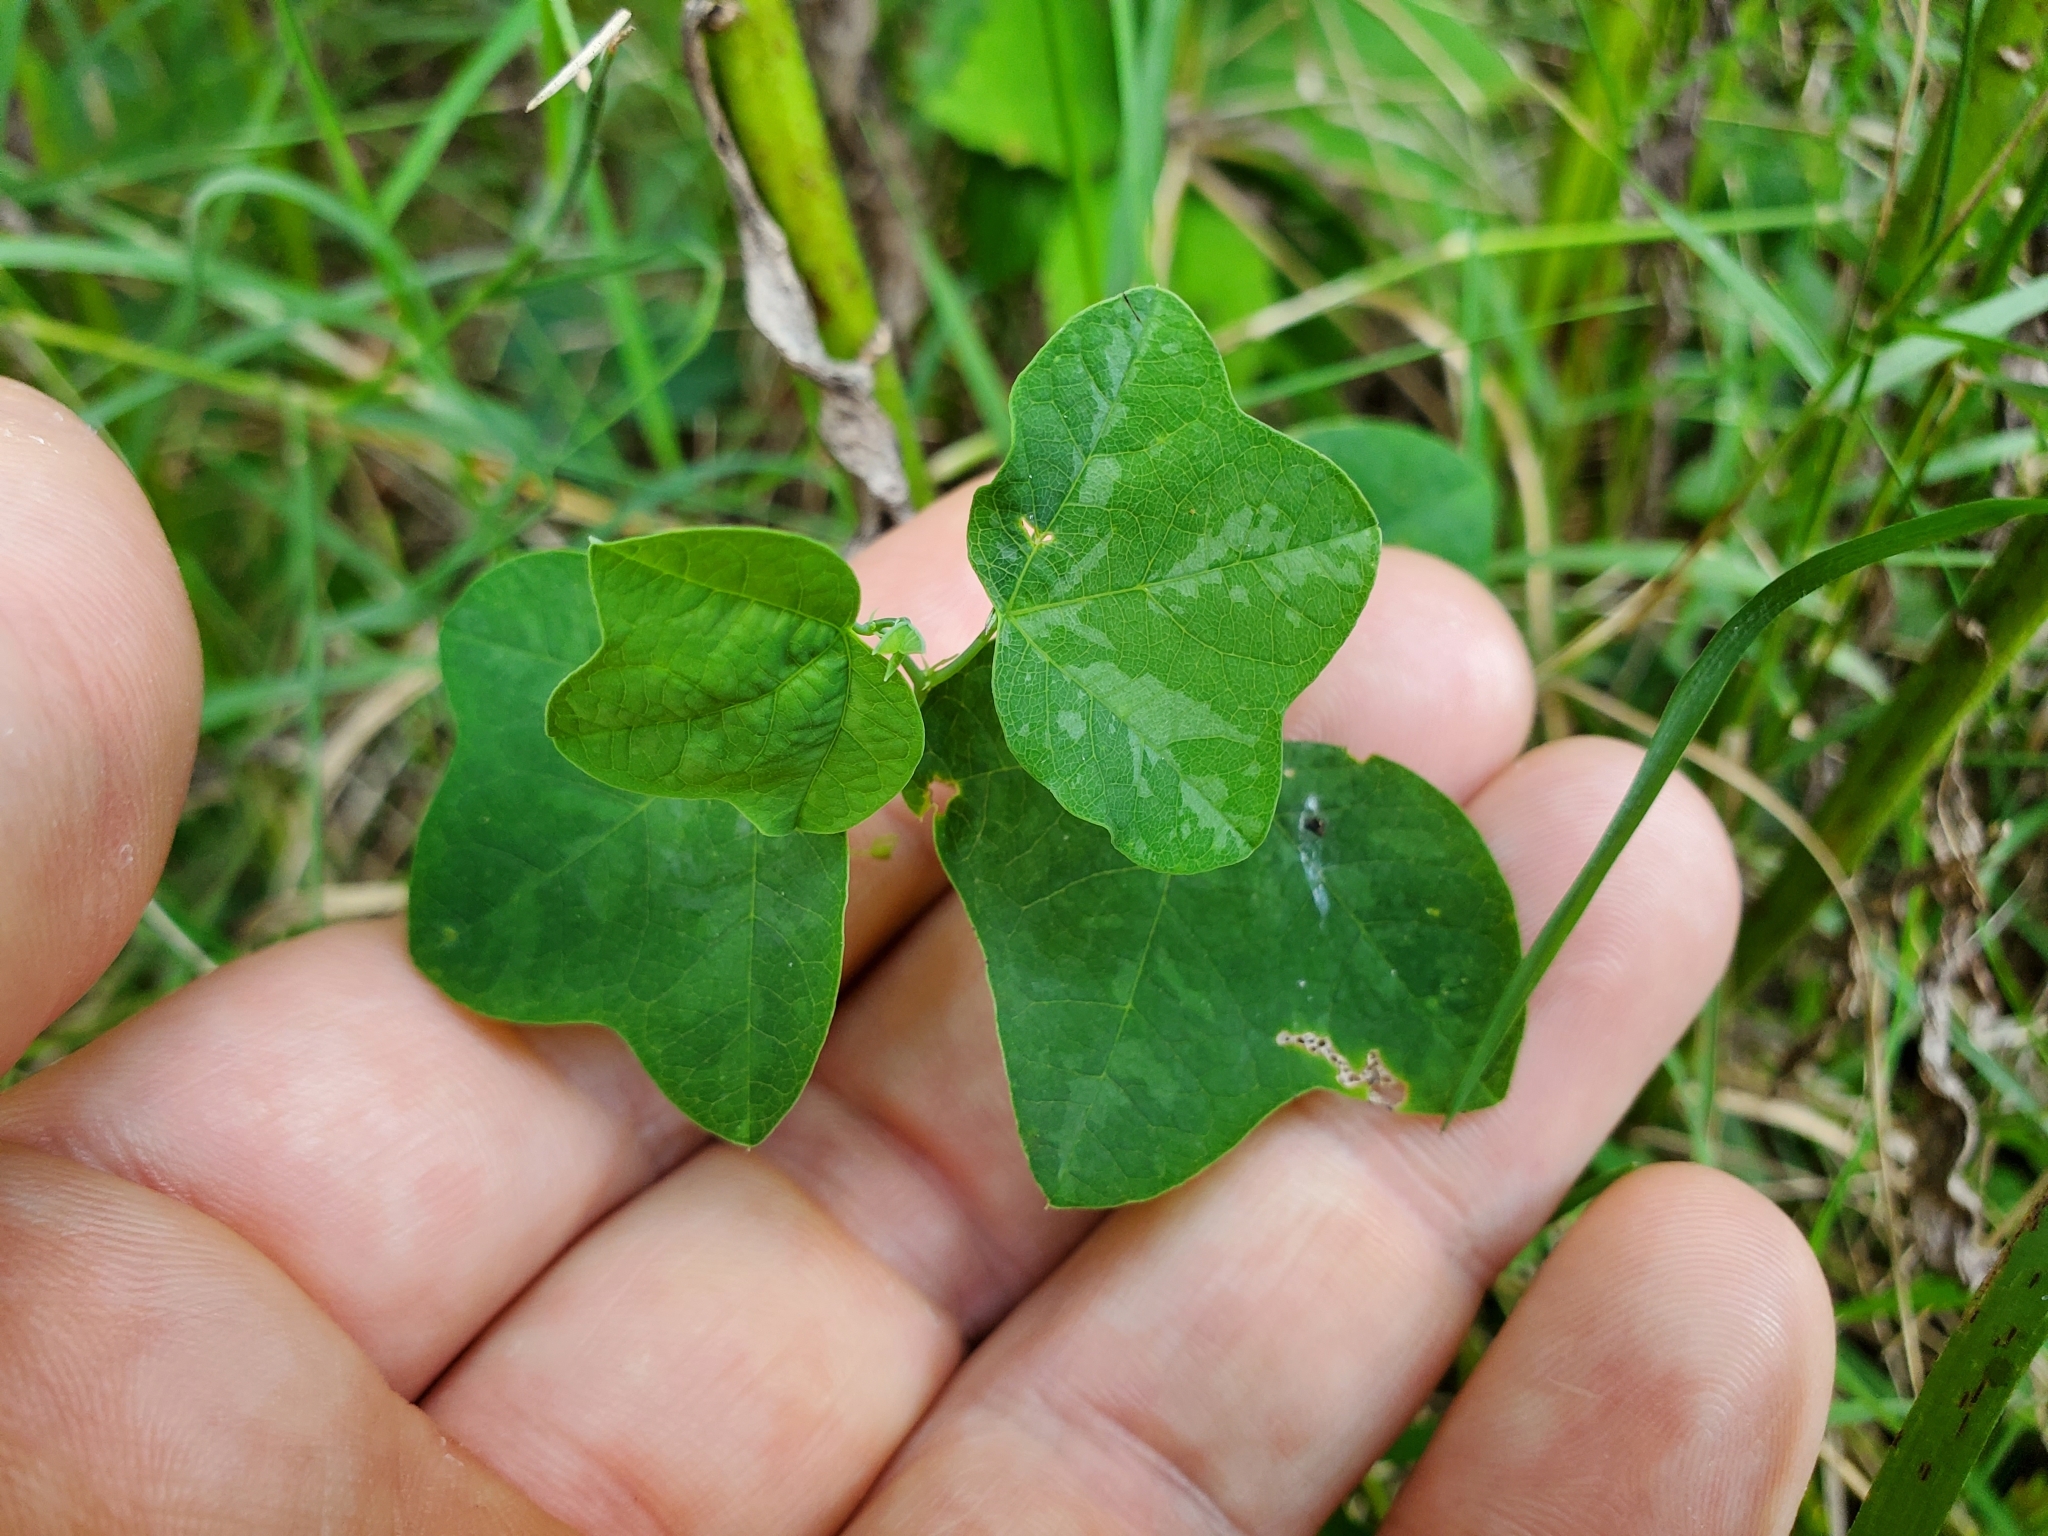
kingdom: Plantae
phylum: Tracheophyta
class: Magnoliopsida
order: Malpighiales
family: Passifloraceae
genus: Passiflora
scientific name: Passiflora lutea
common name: Yellow passionflower
